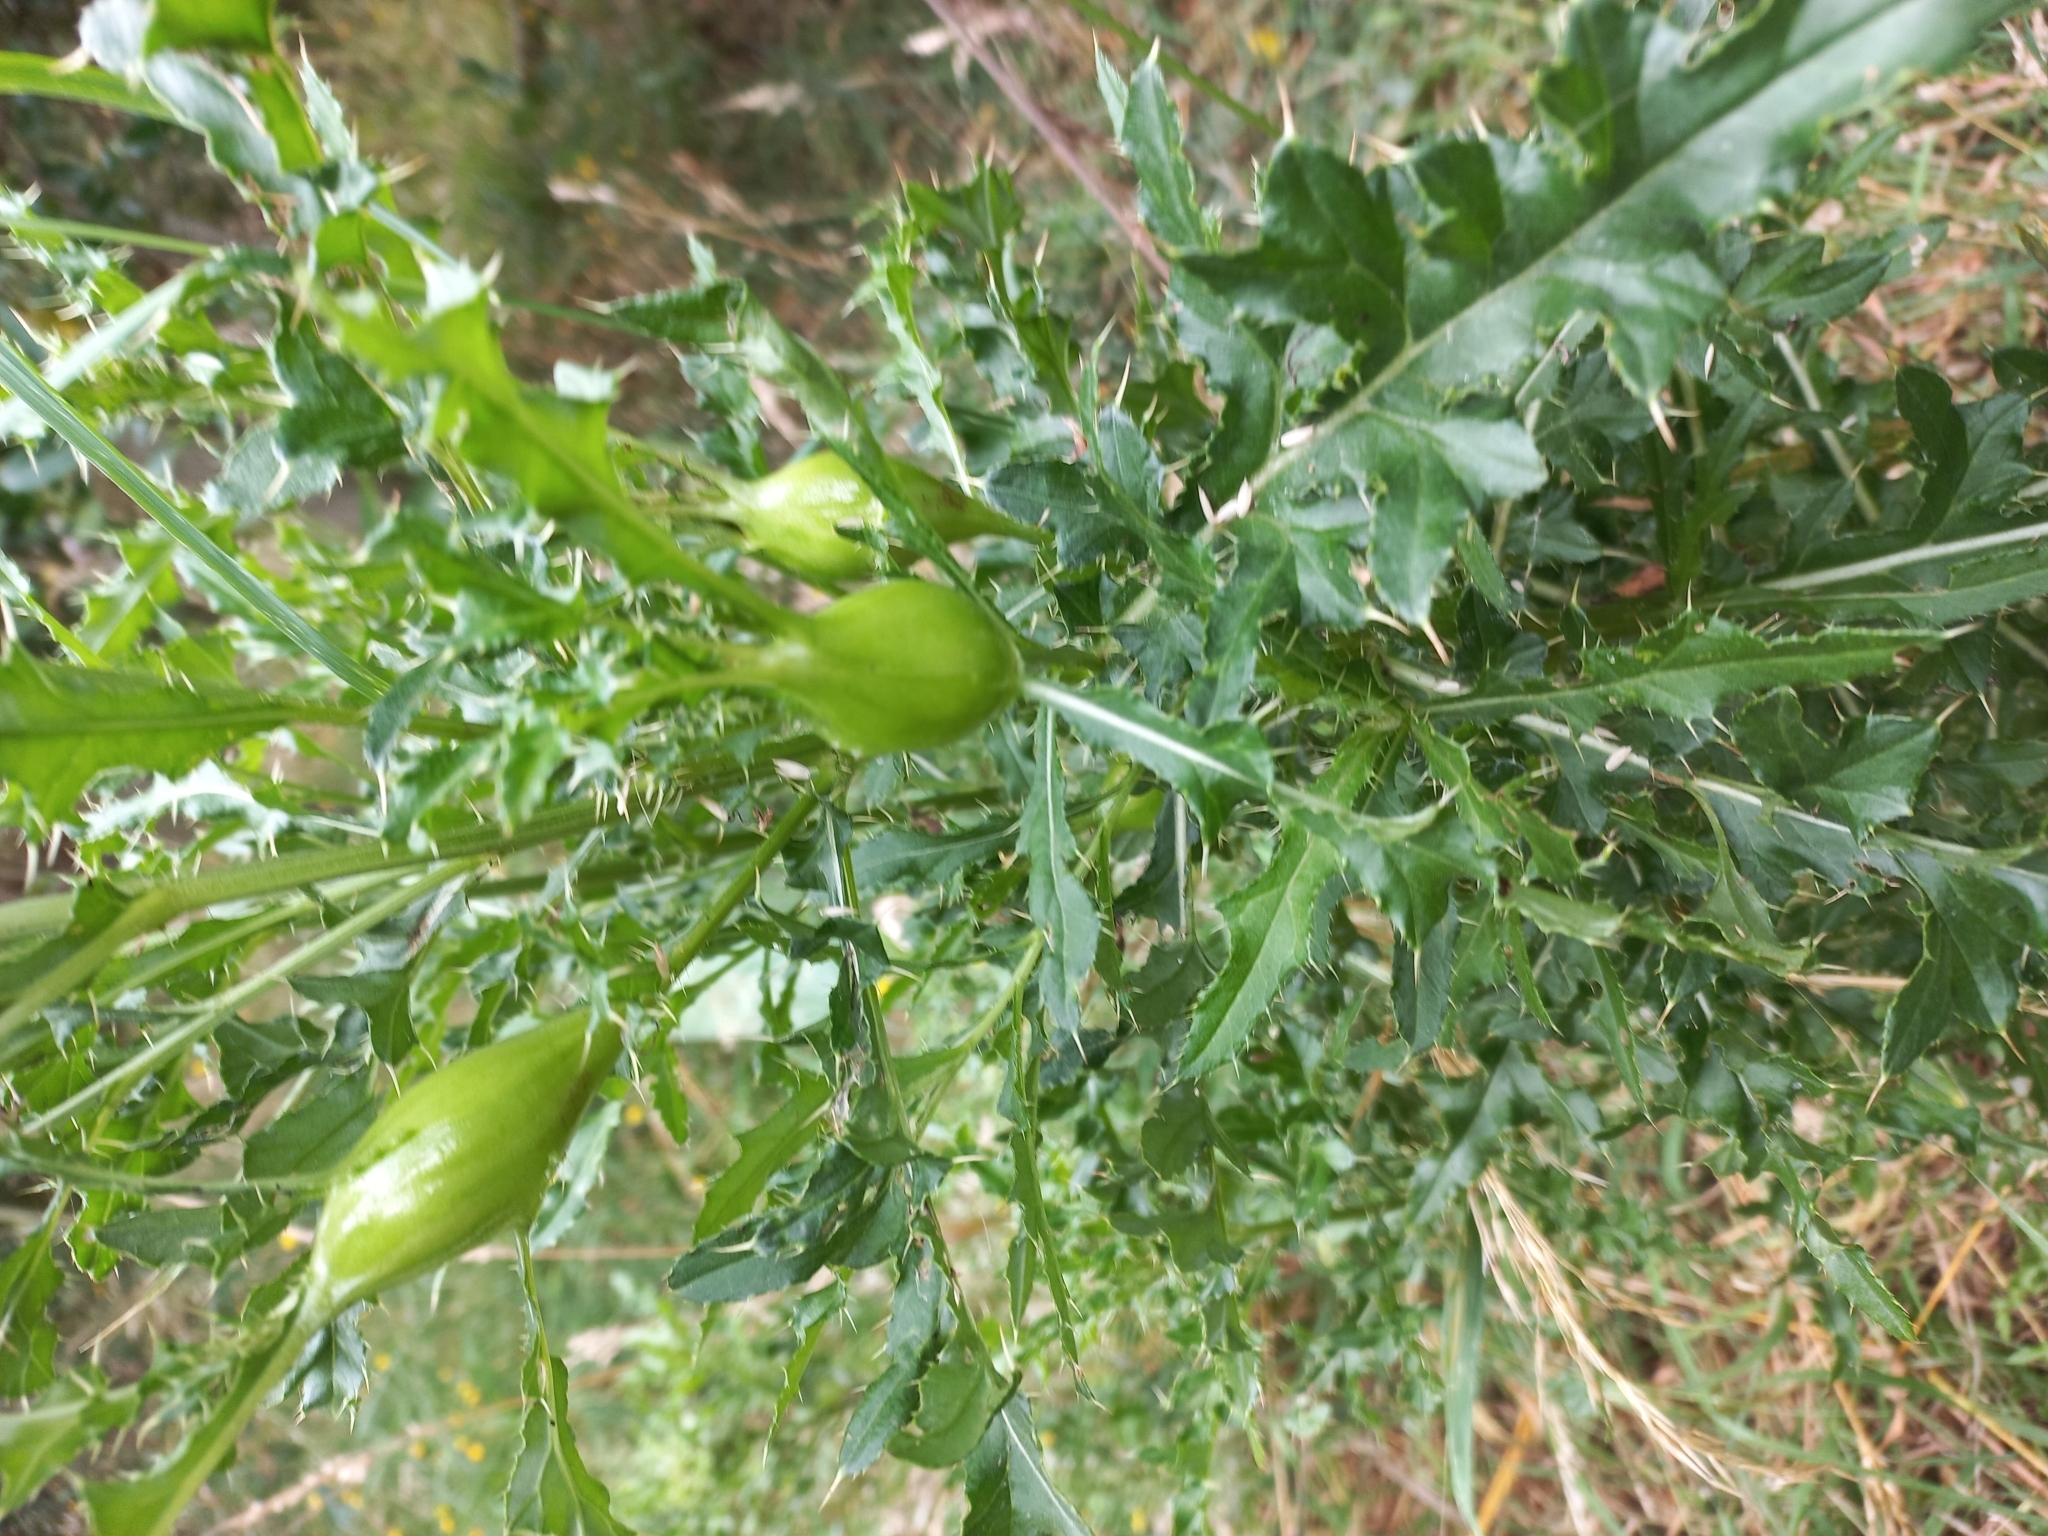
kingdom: Animalia
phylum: Arthropoda
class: Insecta
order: Diptera
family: Tephritidae
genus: Urophora
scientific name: Urophora cardui
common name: Fruit fly
